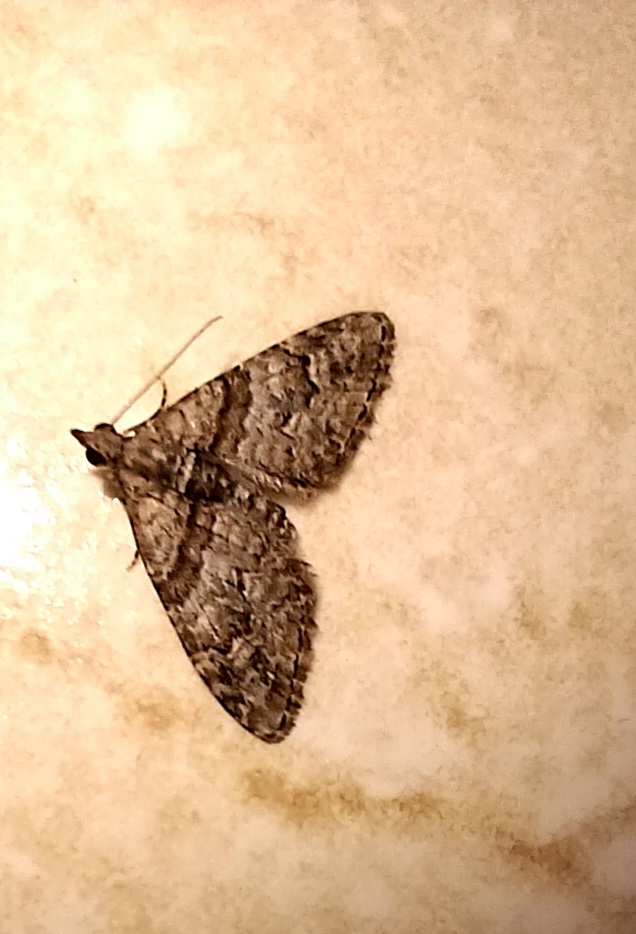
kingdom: Animalia
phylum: Arthropoda
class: Insecta
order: Lepidoptera
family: Geometridae
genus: Phrissogonus
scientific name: Phrissogonus laticostata
